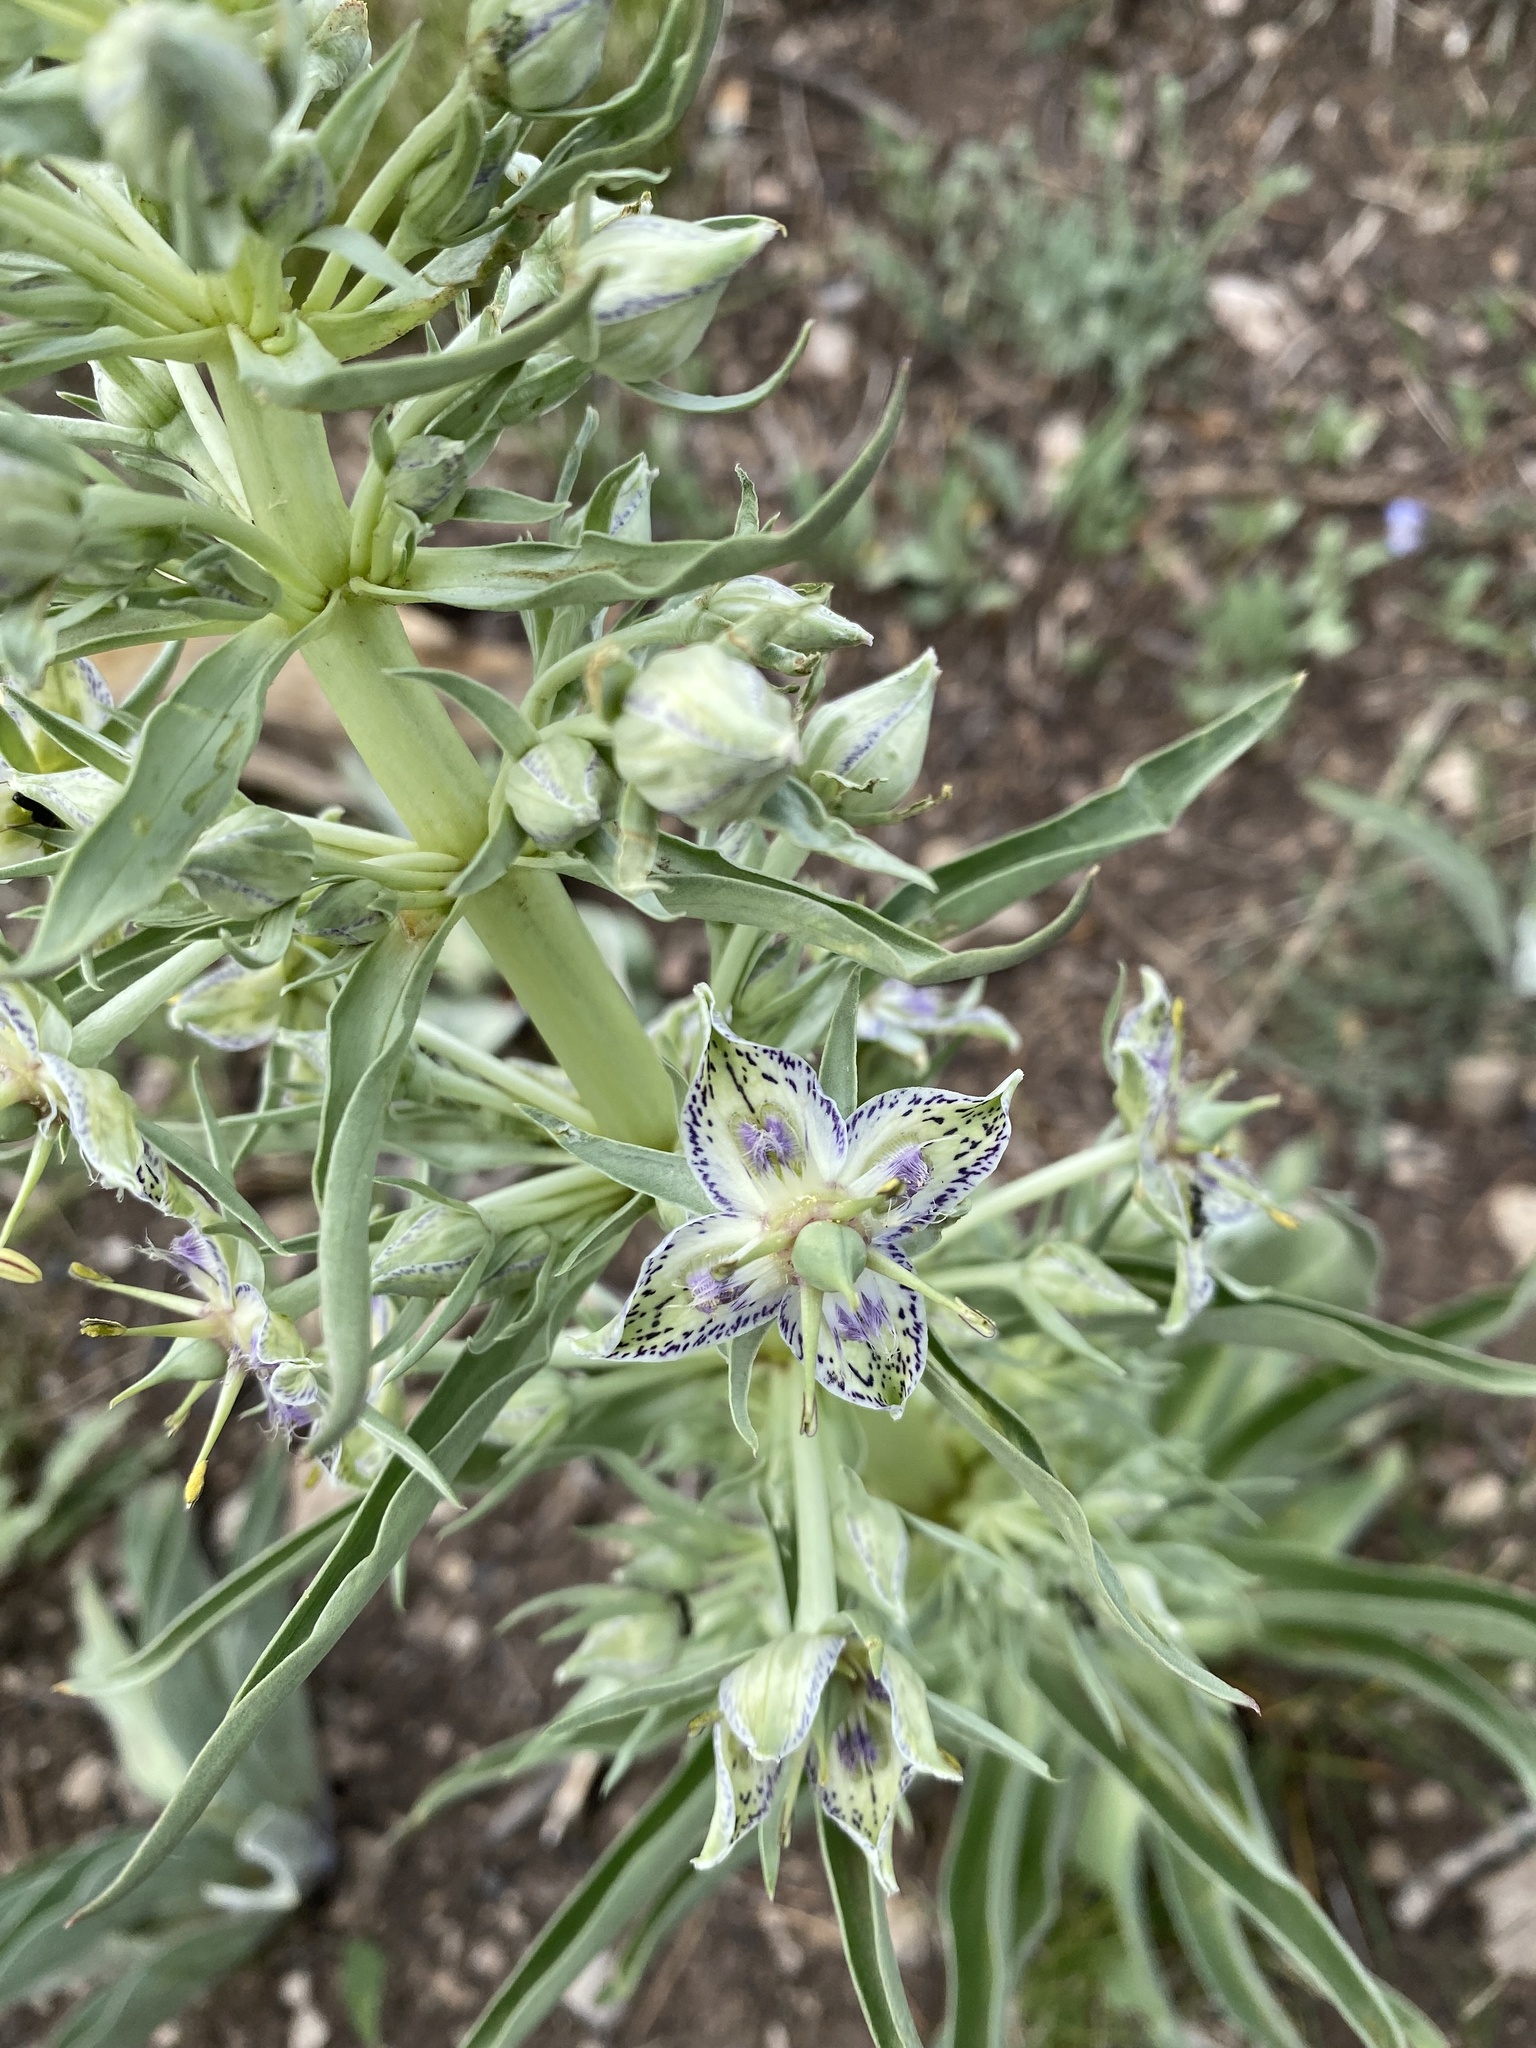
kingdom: Plantae
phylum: Tracheophyta
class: Magnoliopsida
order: Gentianales
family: Gentianaceae
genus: Frasera
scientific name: Frasera speciosa
